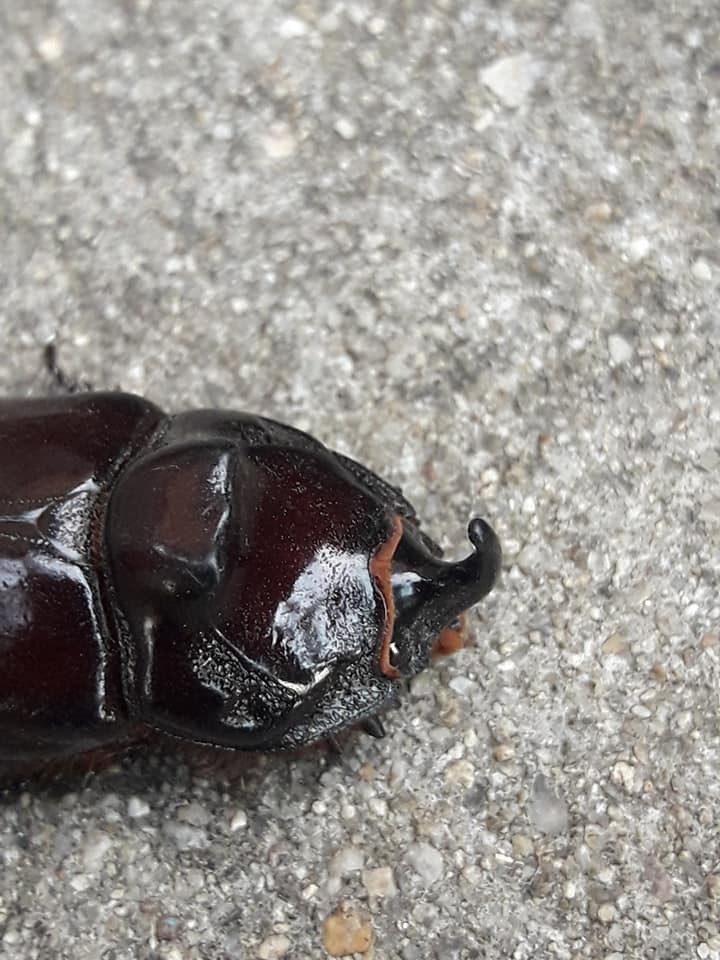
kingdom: Animalia
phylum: Arthropoda
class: Insecta
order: Coleoptera
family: Scarabaeidae
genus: Oryctes
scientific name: Oryctes nasicornis
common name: European rhinoceros beetle
